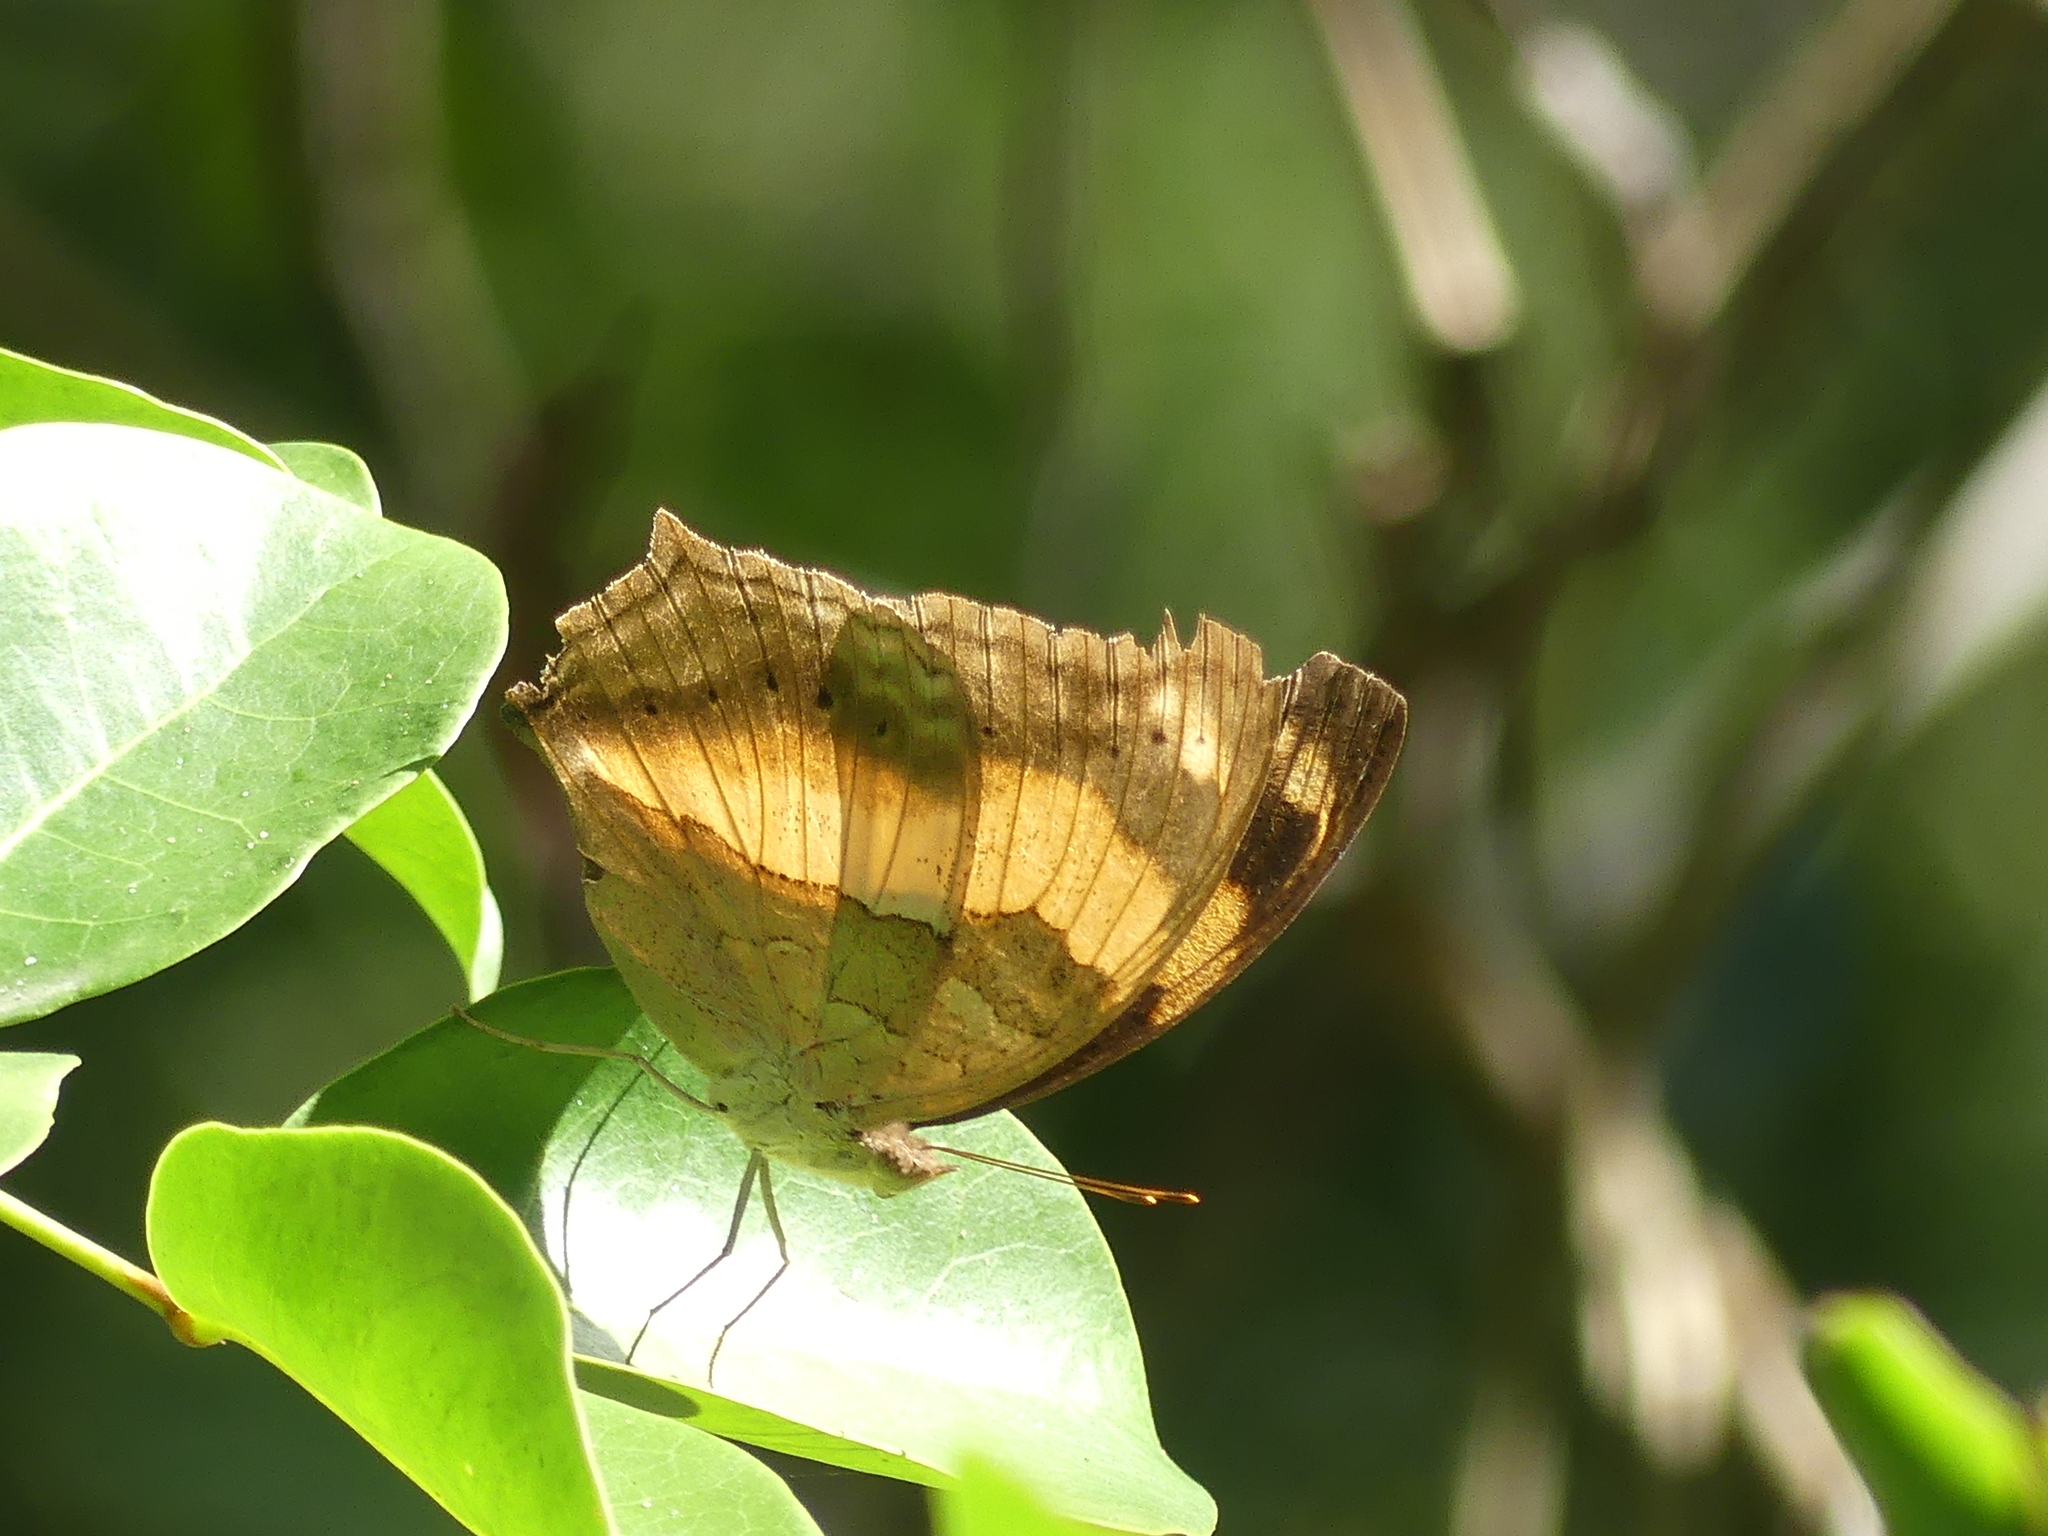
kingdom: Animalia
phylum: Arthropoda
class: Insecta
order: Lepidoptera
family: Nymphalidae
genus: Yoma
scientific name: Yoma sabina
